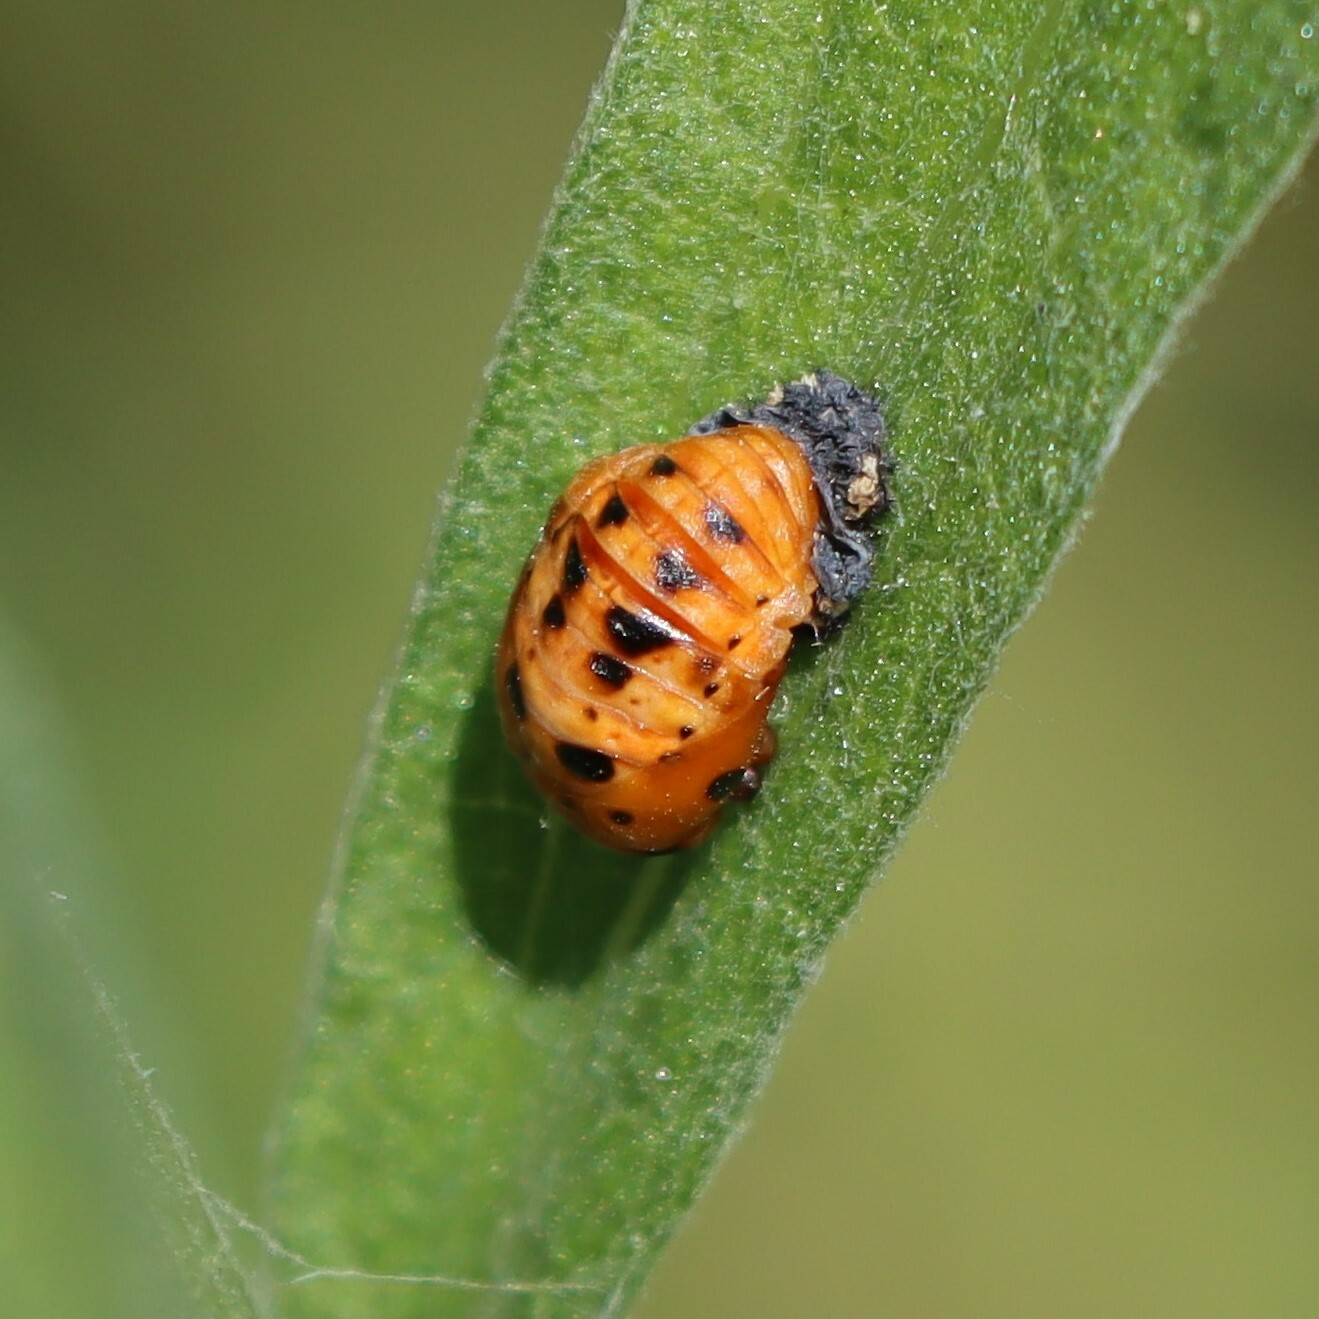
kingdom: Animalia
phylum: Arthropoda
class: Insecta
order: Coleoptera
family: Coccinellidae
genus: Harmonia
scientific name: Harmonia axyridis
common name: Harlequin ladybird
